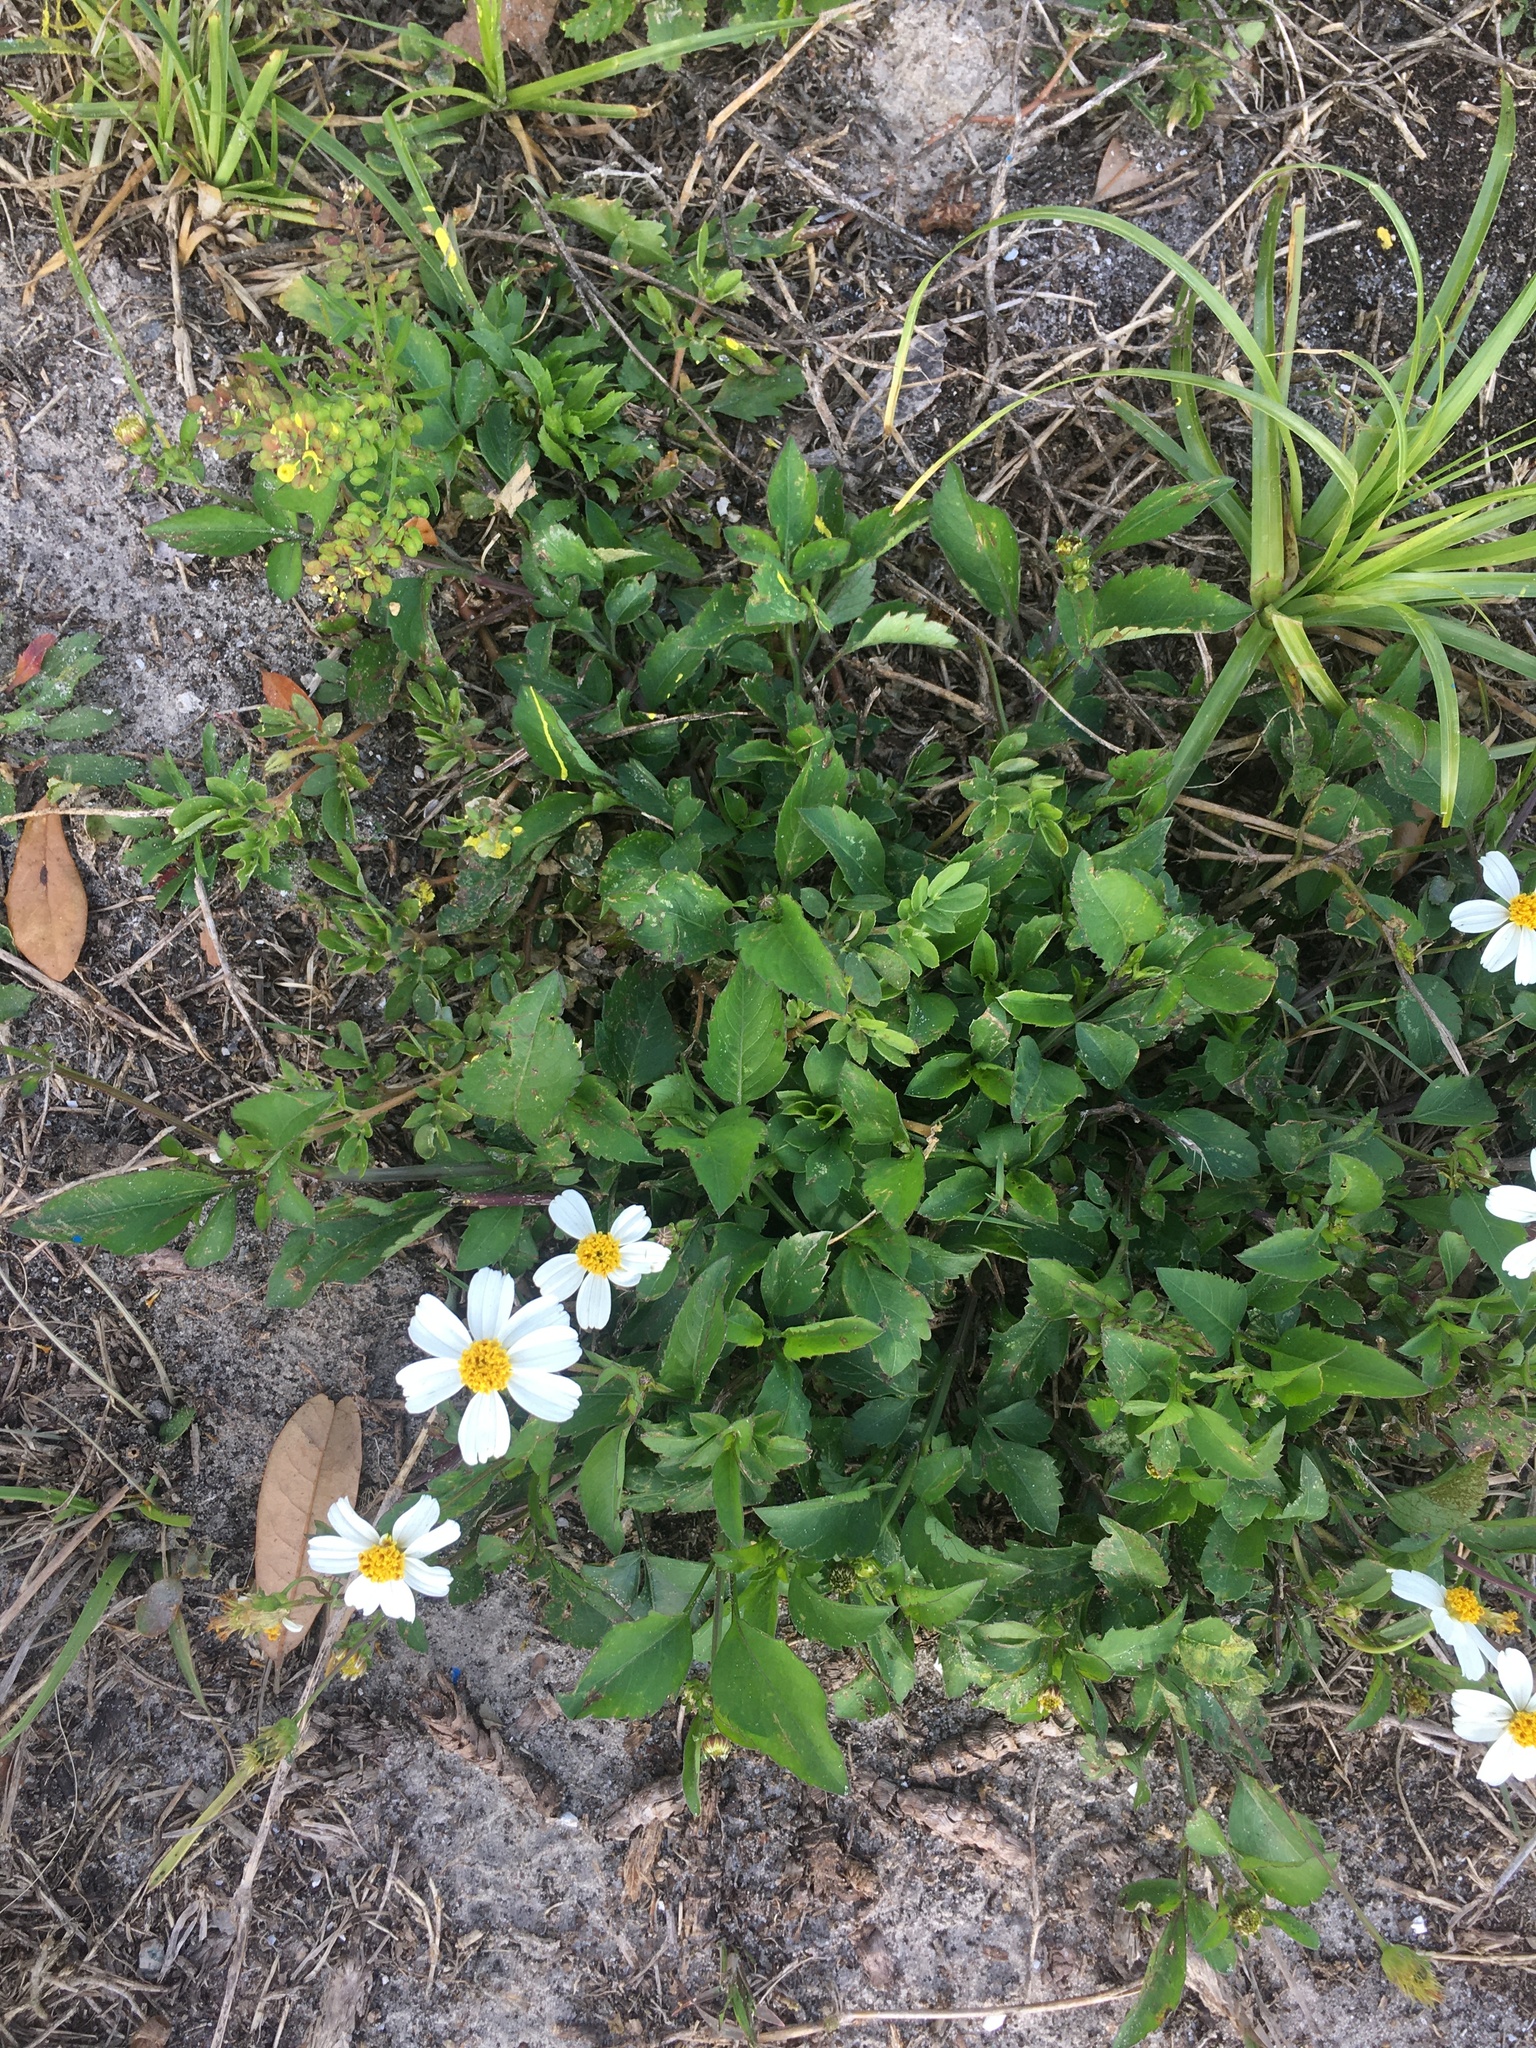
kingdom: Plantae
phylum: Tracheophyta
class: Magnoliopsida
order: Asterales
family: Asteraceae
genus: Bidens
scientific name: Bidens alba
